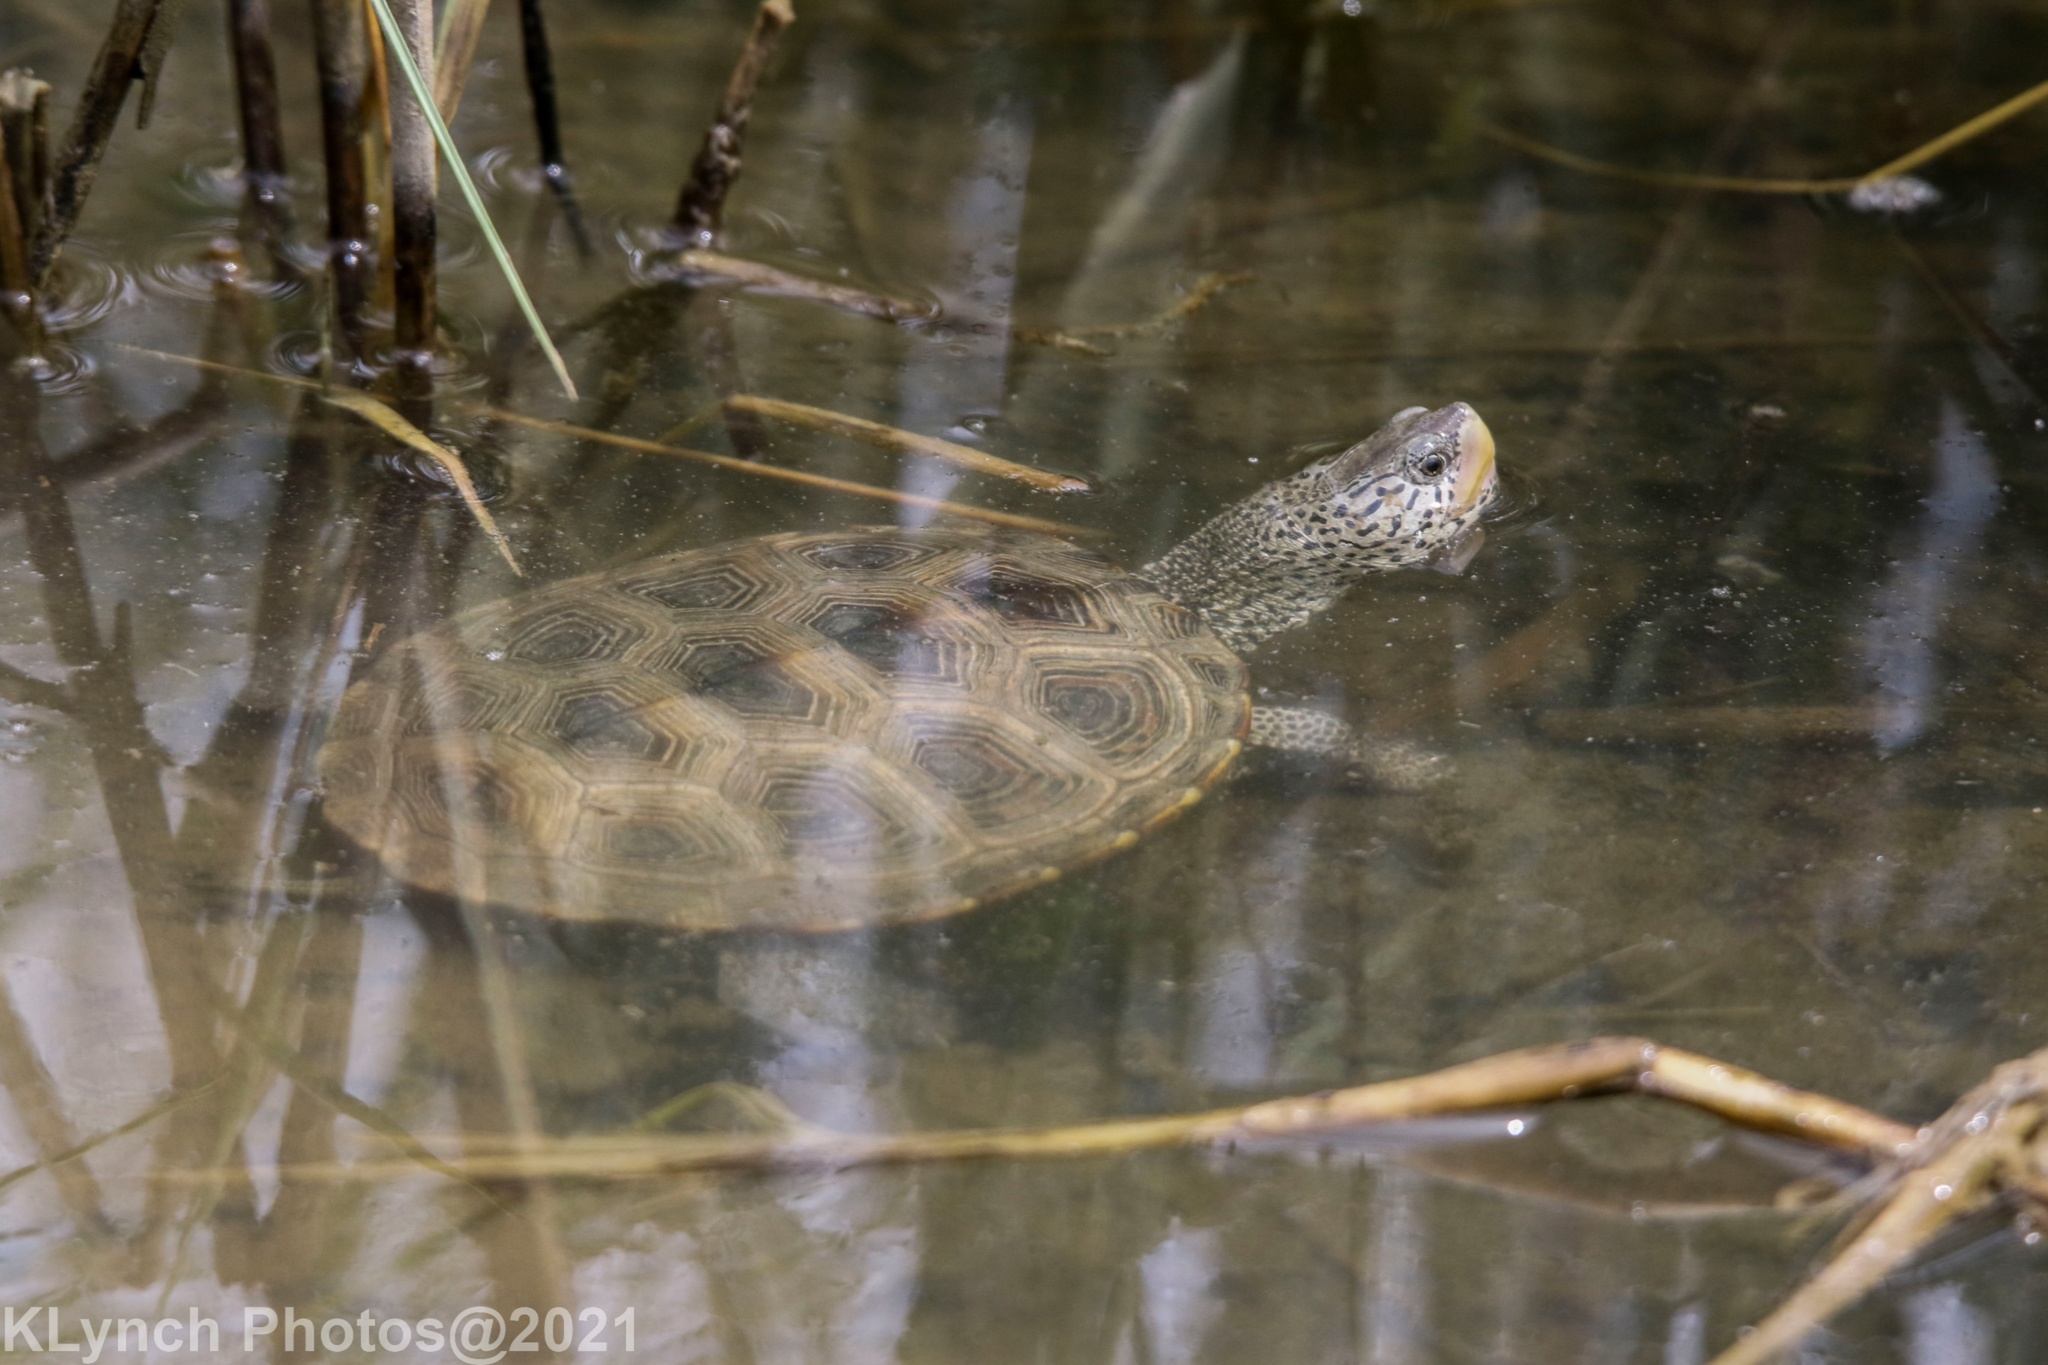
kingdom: Animalia
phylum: Chordata
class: Testudines
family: Emydidae
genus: Malaclemys
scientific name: Malaclemys terrapin
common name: Diamondback terrapin
